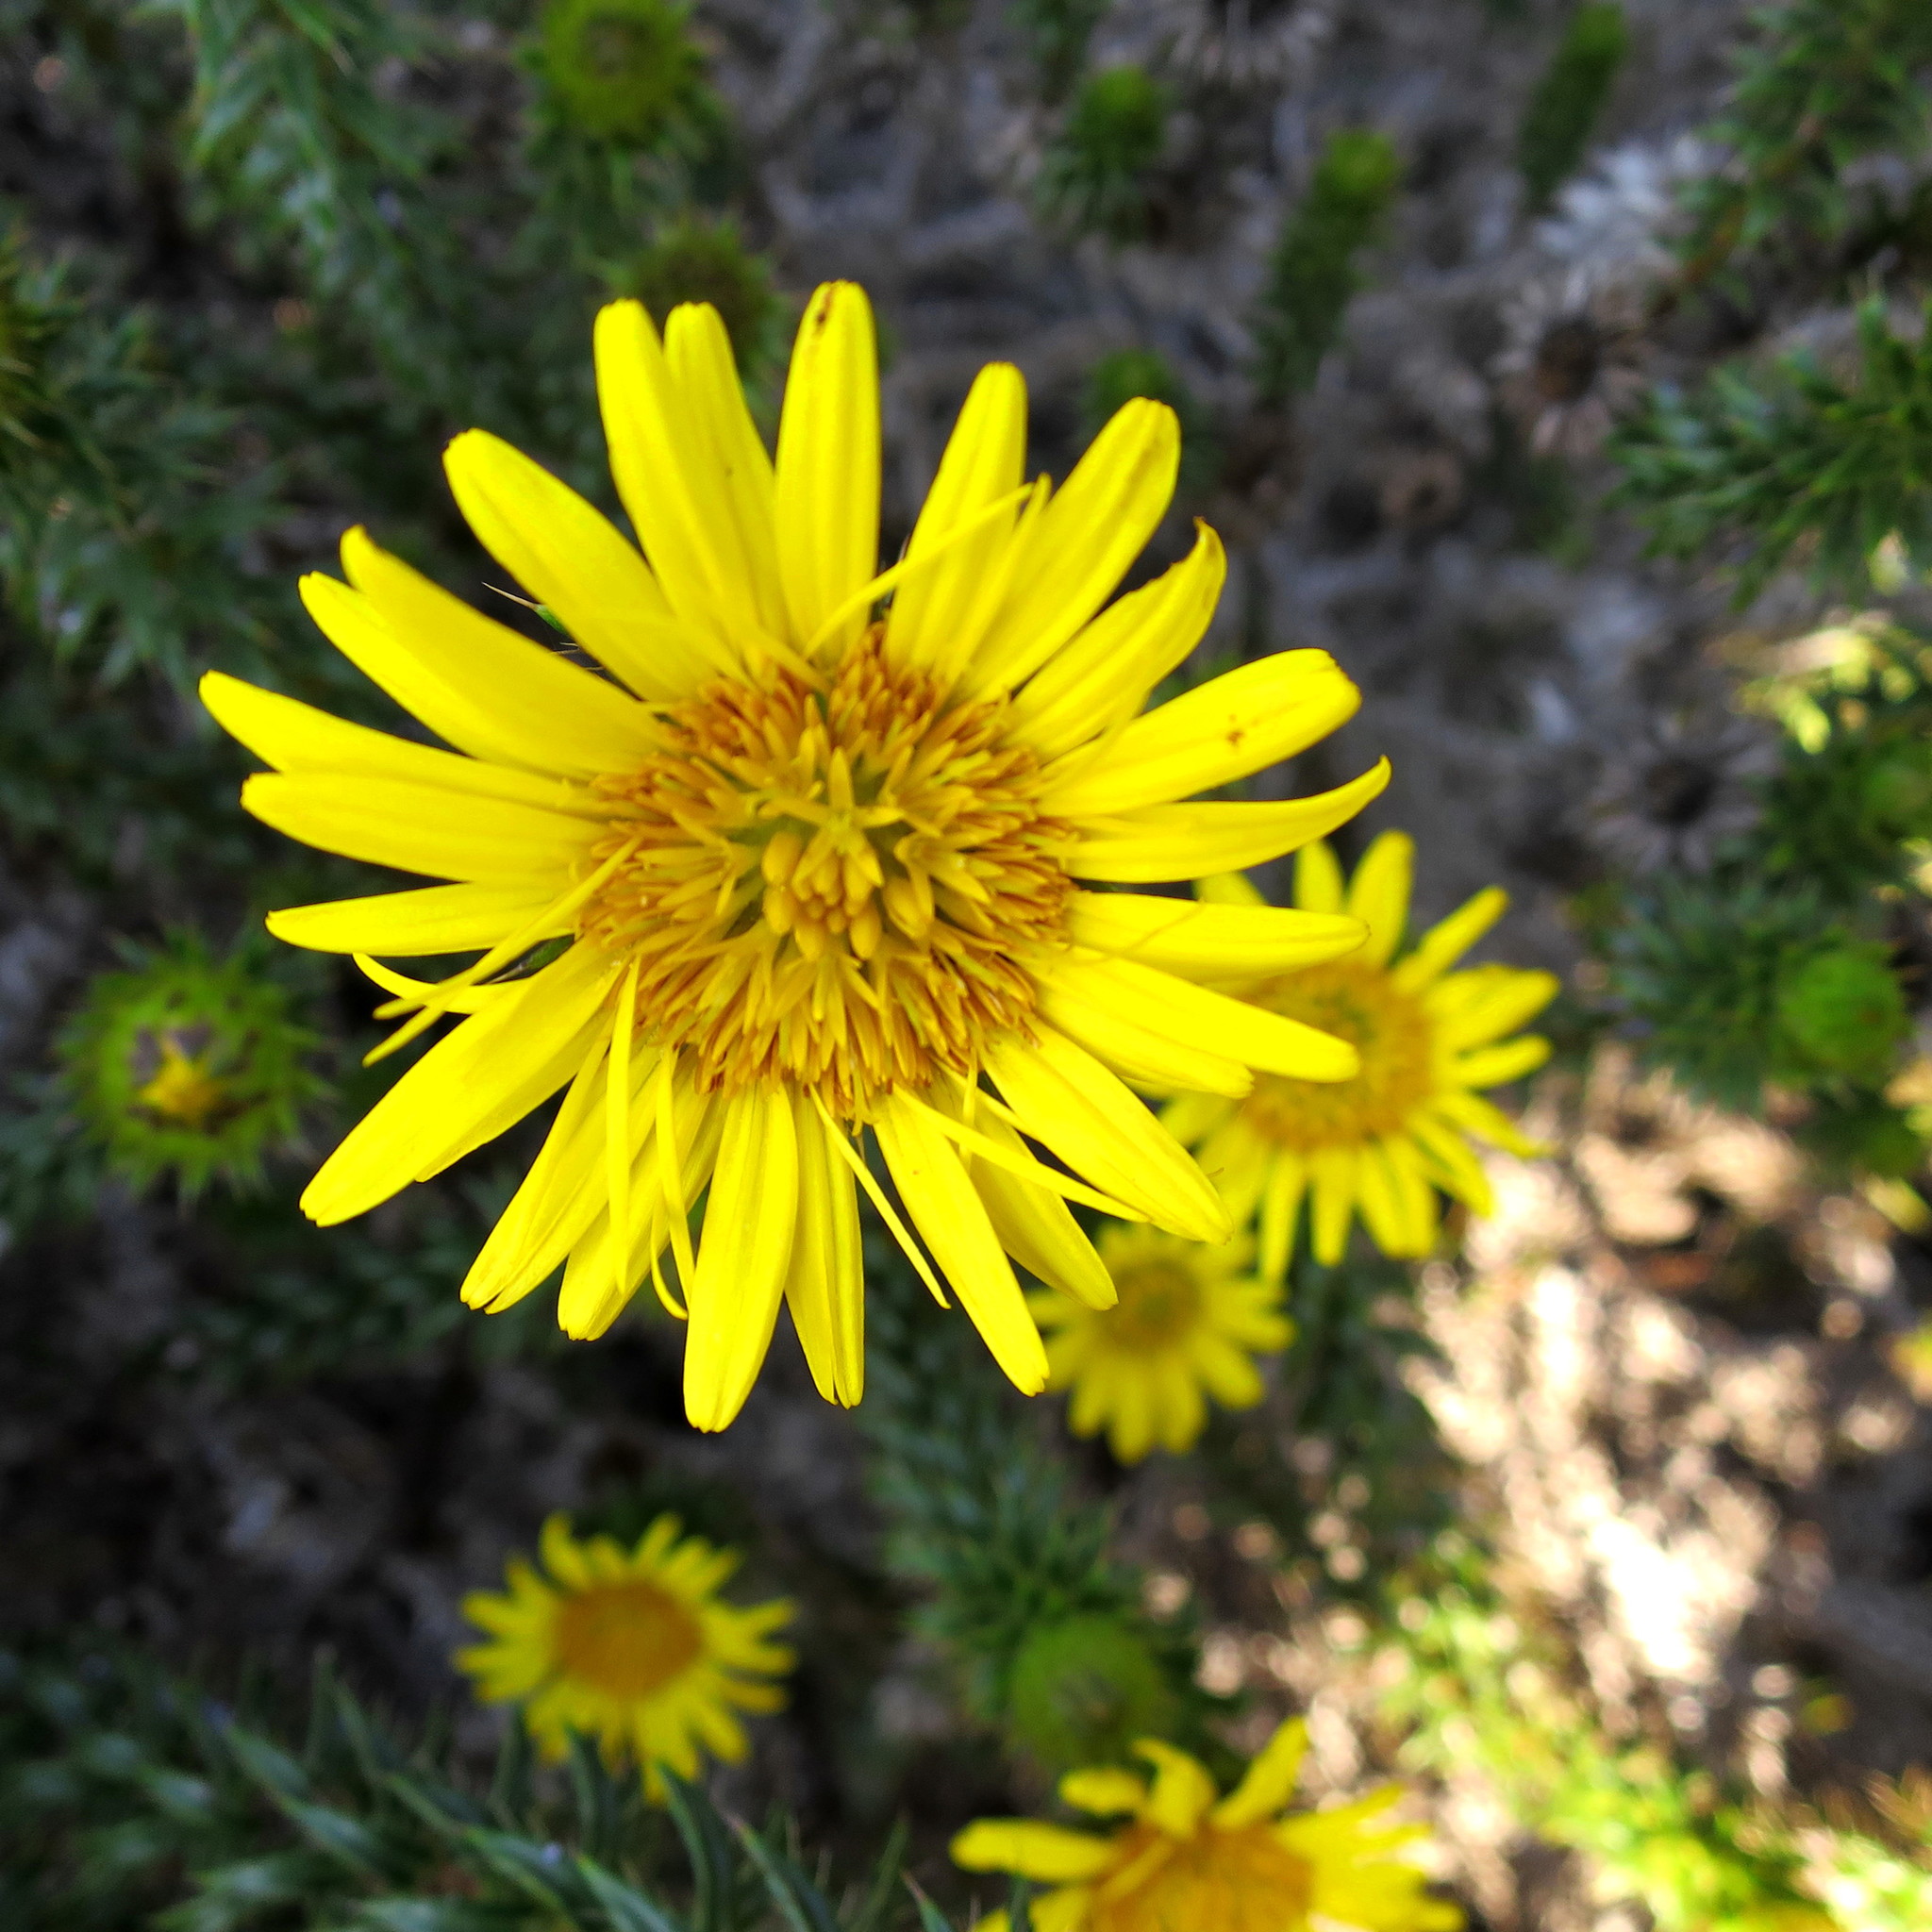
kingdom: Plantae
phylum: Tracheophyta
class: Magnoliopsida
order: Asterales
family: Asteraceae
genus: Cullumia
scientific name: Cullumia carlinoides
